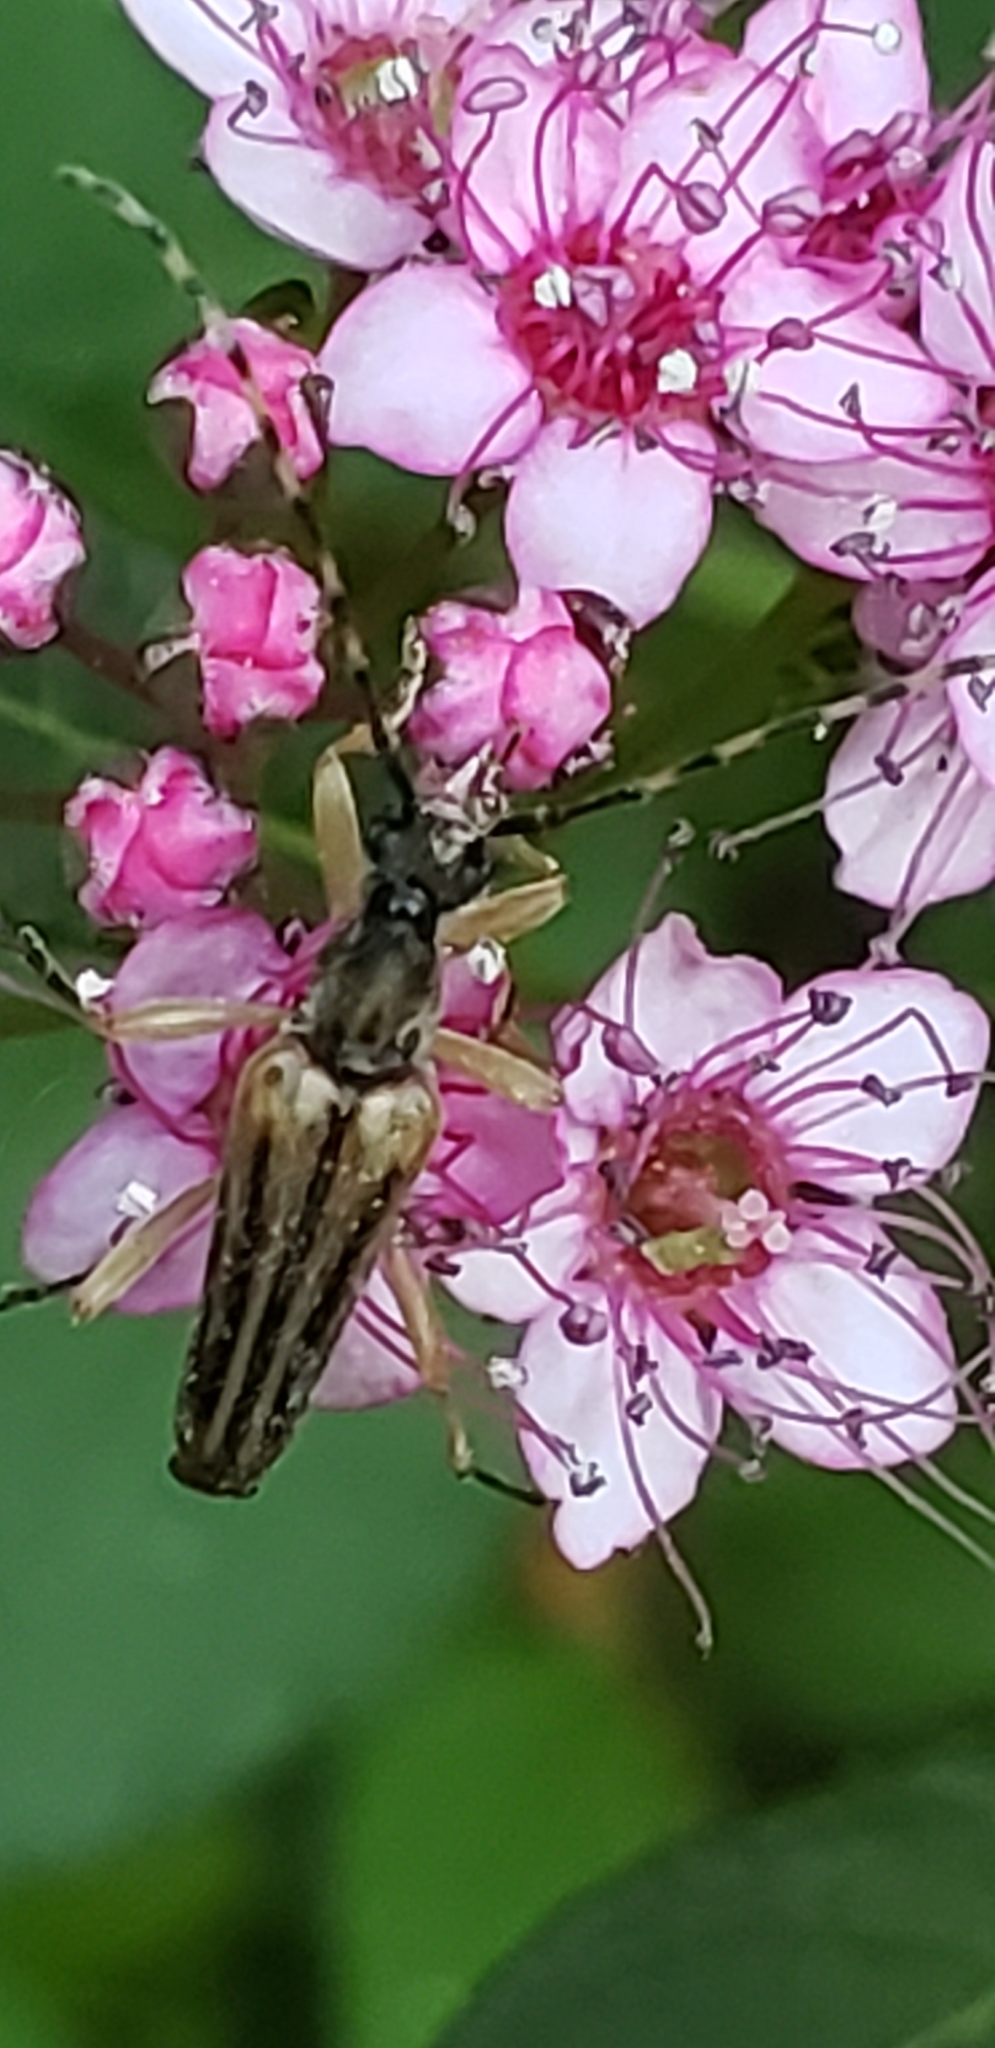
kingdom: Animalia
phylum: Arthropoda
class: Insecta
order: Coleoptera
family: Cerambycidae
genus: Analeptura
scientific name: Analeptura lineola
